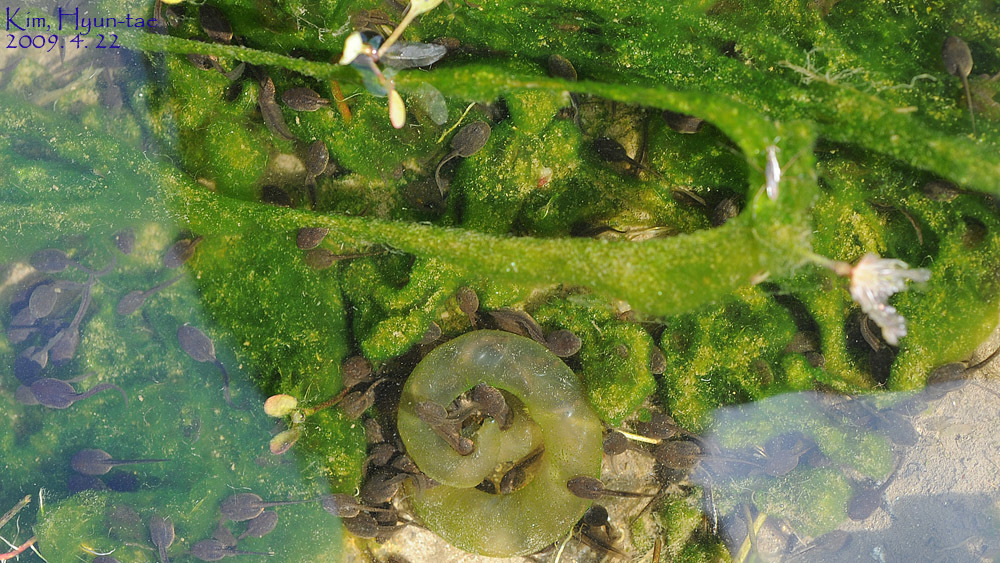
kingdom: Animalia
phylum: Chordata
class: Amphibia
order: Caudata
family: Hynobiidae
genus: Hynobius
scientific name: Hynobius leechii
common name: Gensan salamander
